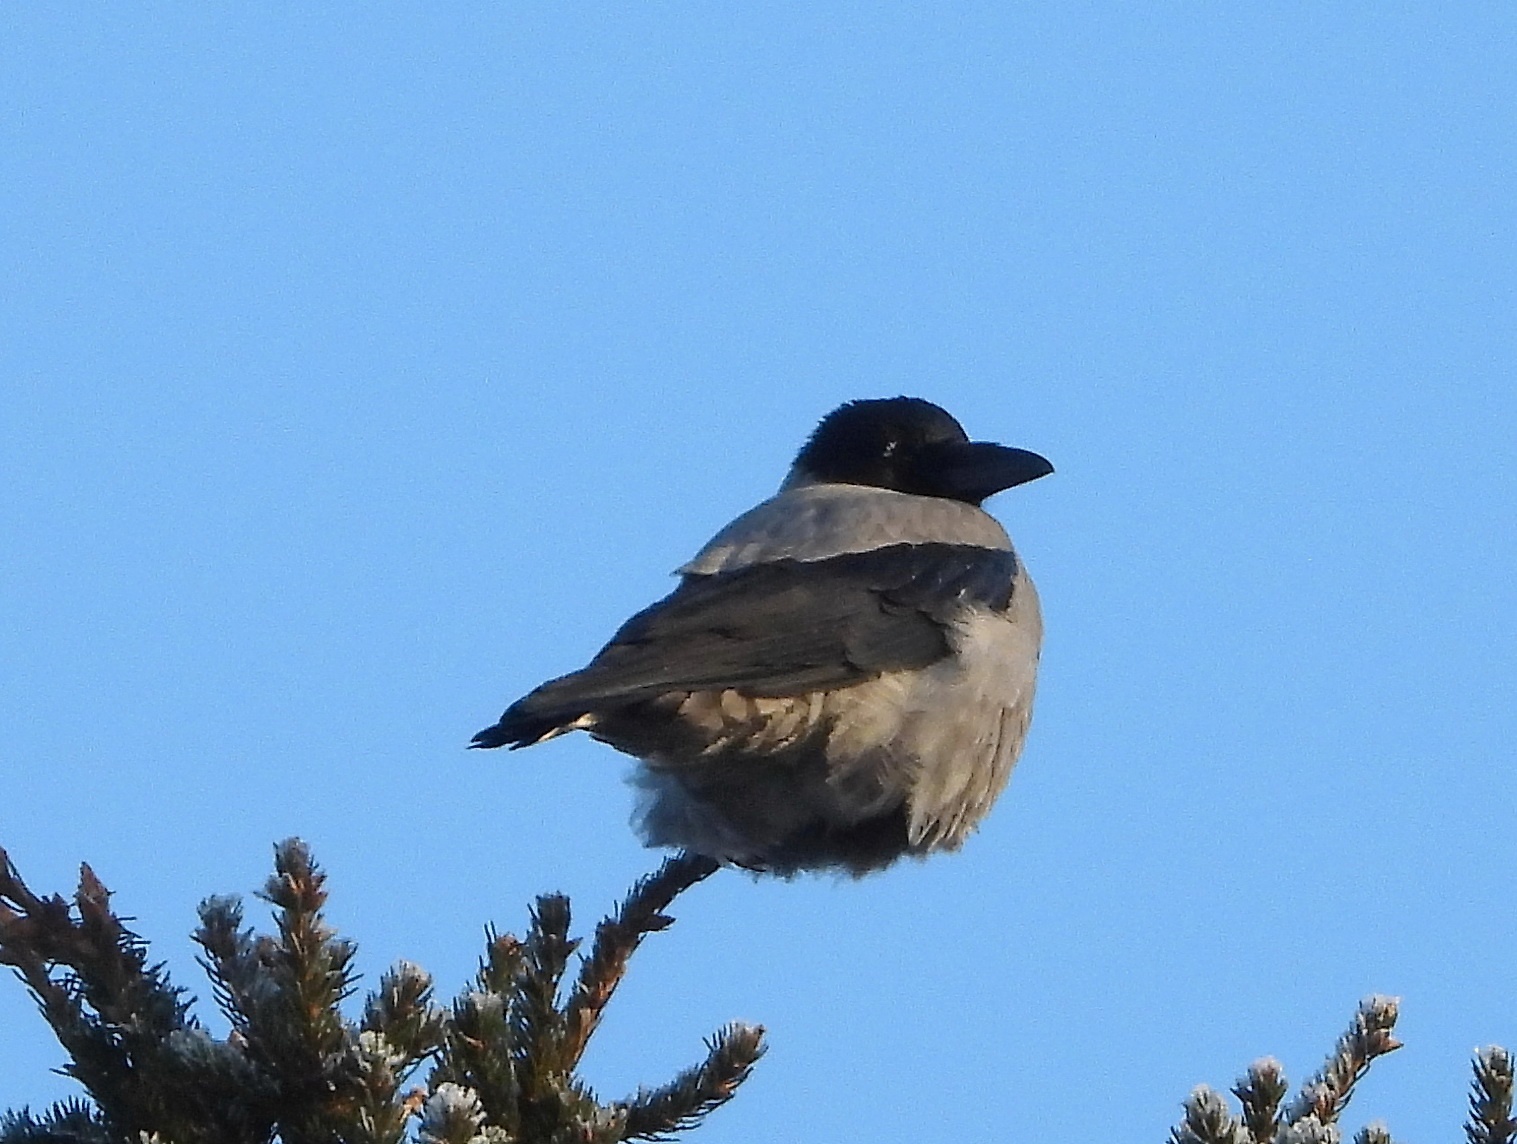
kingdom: Animalia
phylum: Chordata
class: Aves
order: Passeriformes
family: Corvidae
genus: Corvus
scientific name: Corvus cornix
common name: Hooded crow
